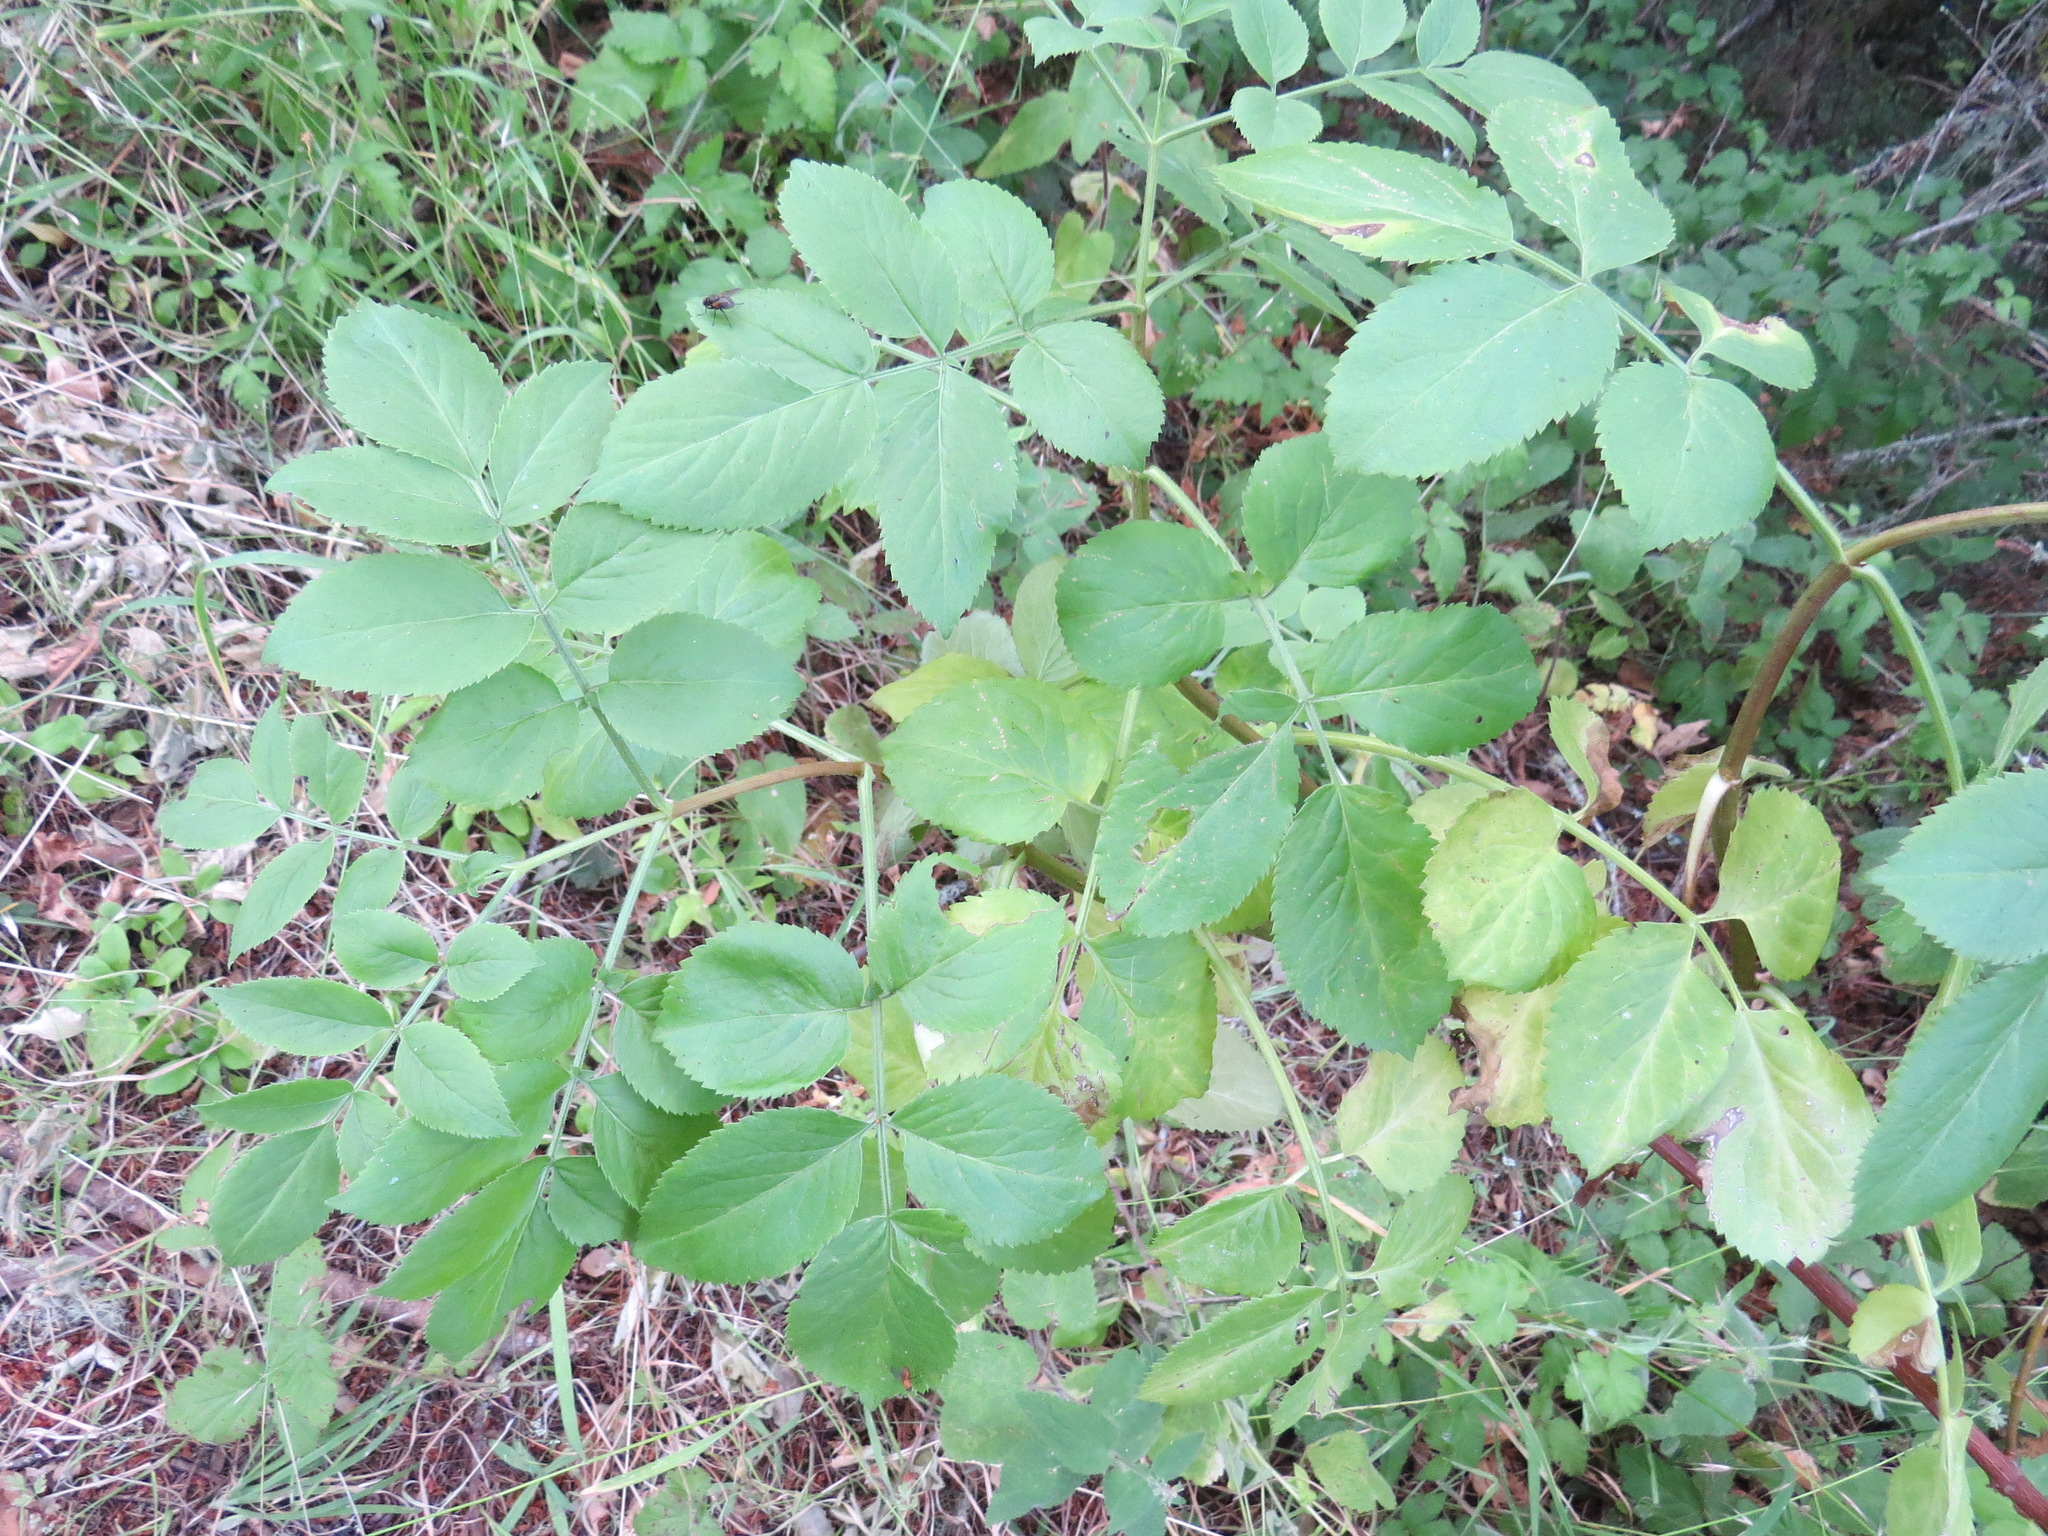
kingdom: Plantae
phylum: Tracheophyta
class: Magnoliopsida
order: Dipsacales
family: Viburnaceae
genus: Sambucus
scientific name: Sambucus cerulea
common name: Blue elder
